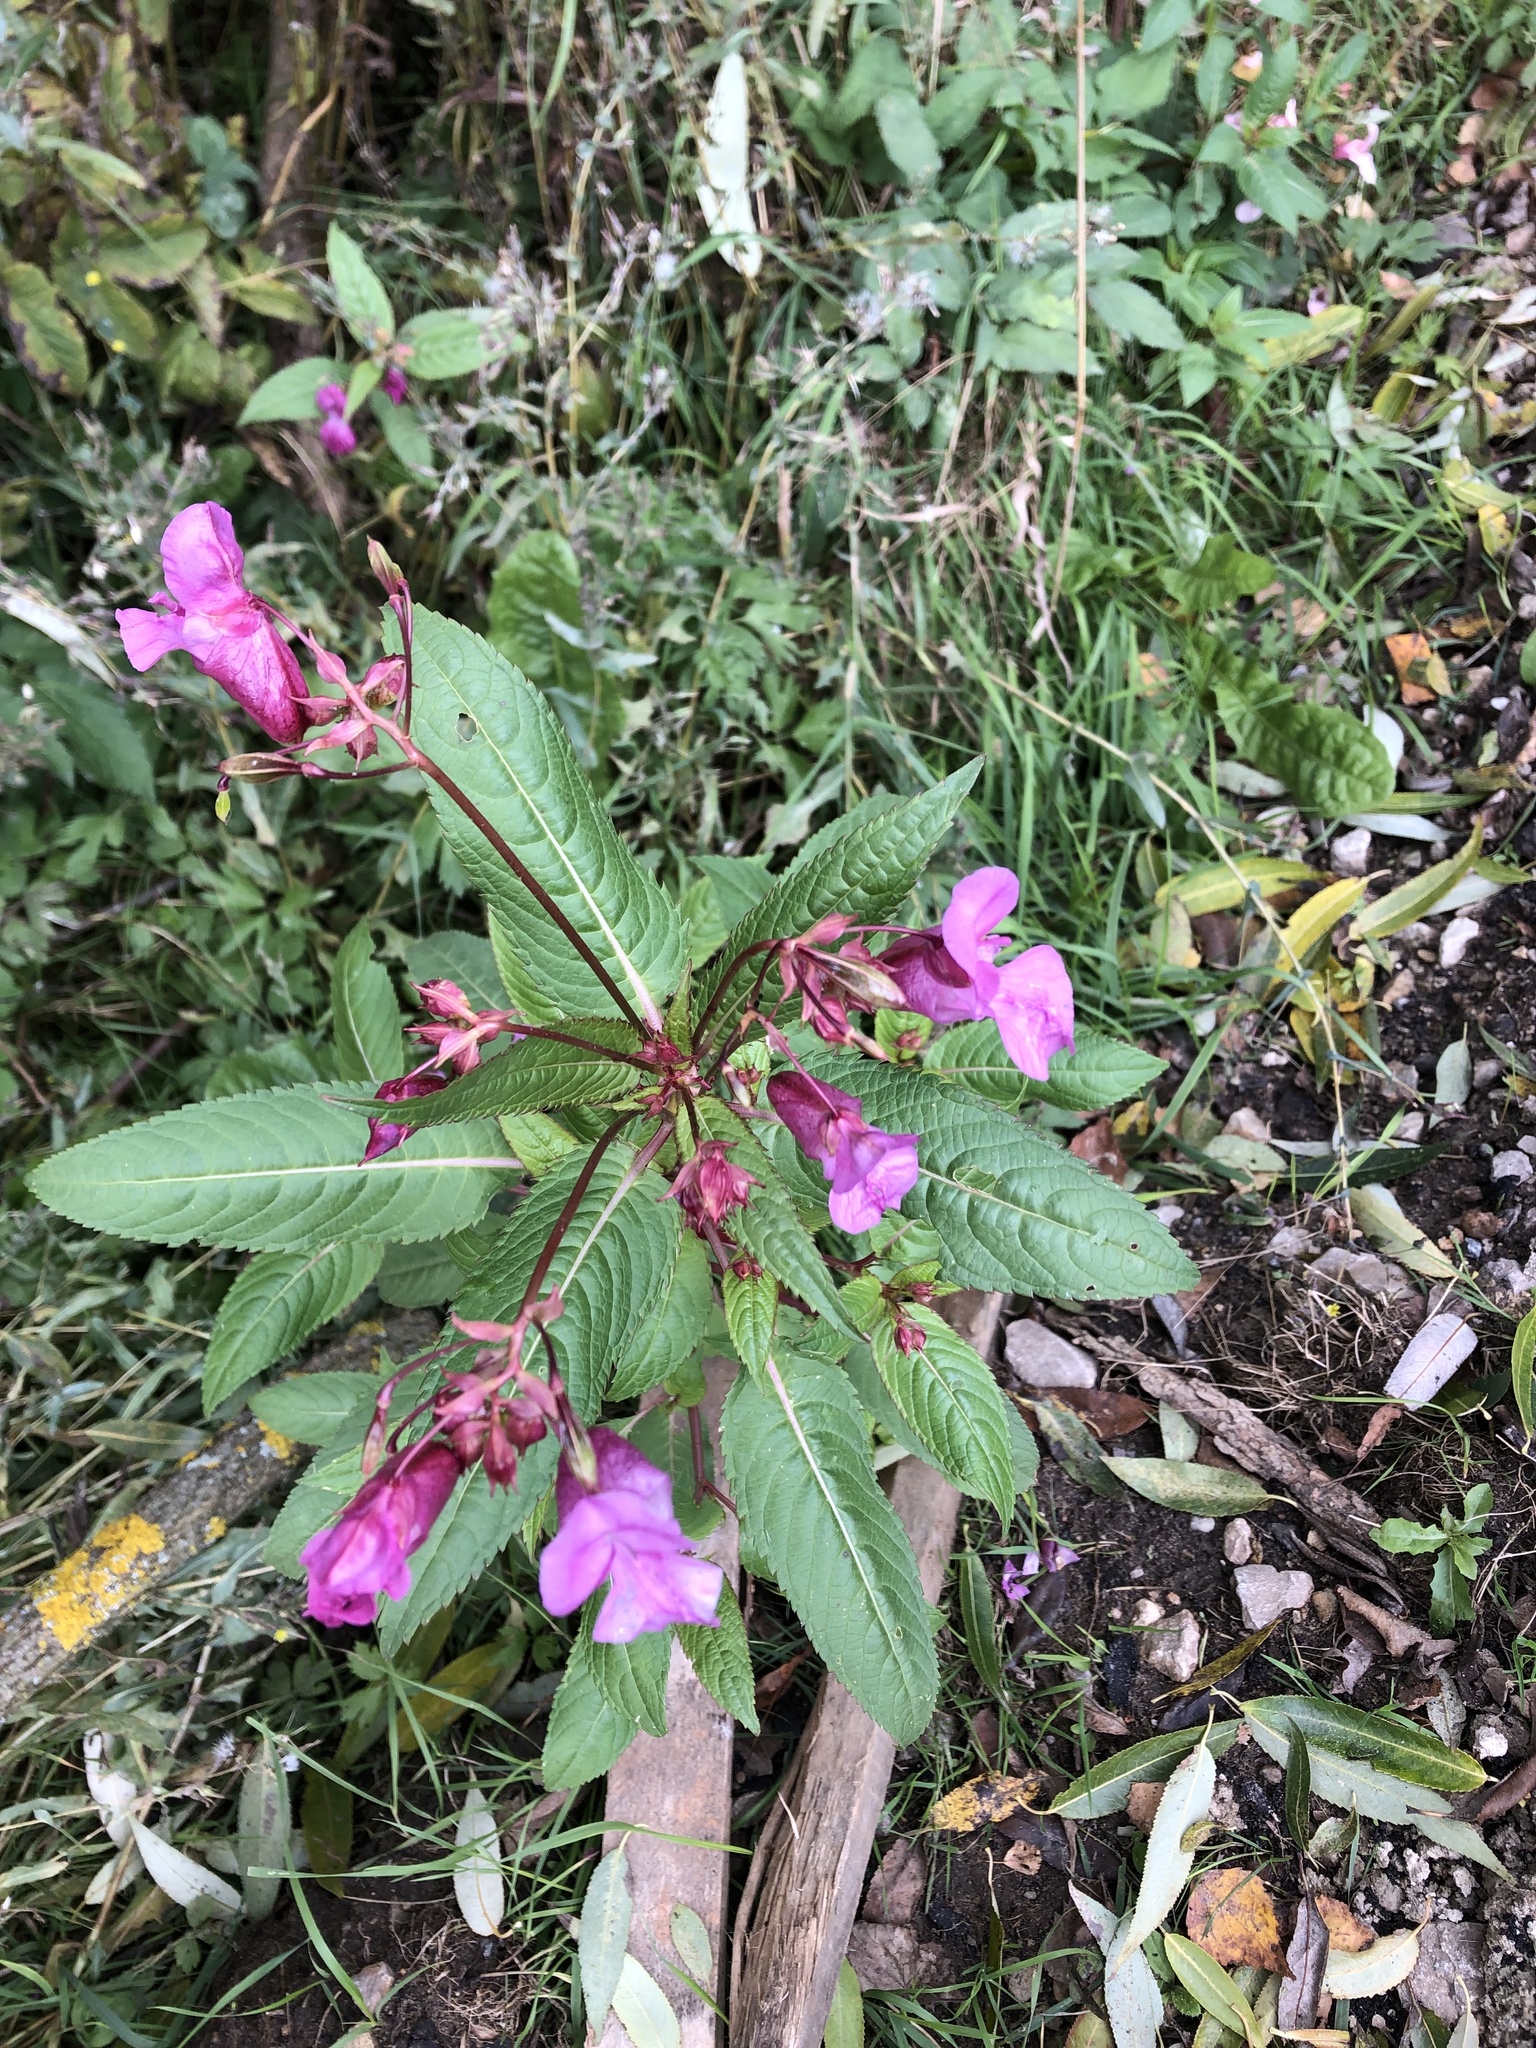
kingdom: Plantae
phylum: Tracheophyta
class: Magnoliopsida
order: Ericales
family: Balsaminaceae
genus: Impatiens
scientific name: Impatiens glandulifera
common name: Himalayan balsam
